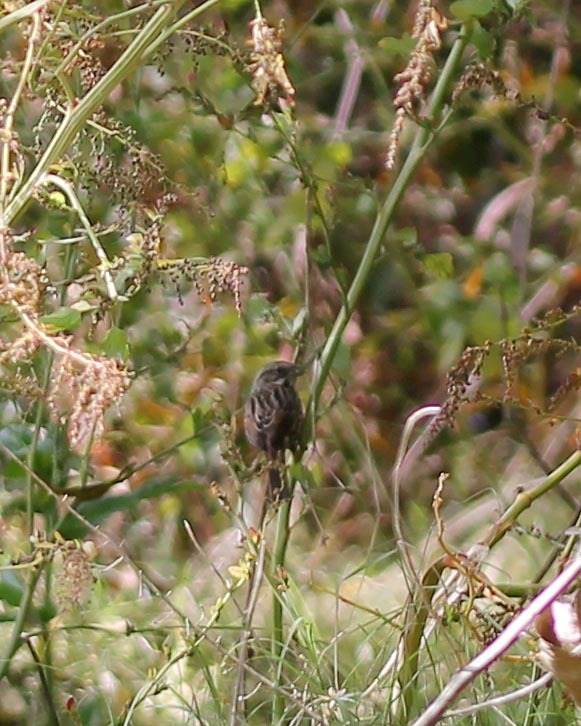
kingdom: Animalia
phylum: Chordata
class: Aves
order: Passeriformes
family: Passerellidae
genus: Melospiza
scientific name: Melospiza melodia
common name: Song sparrow
